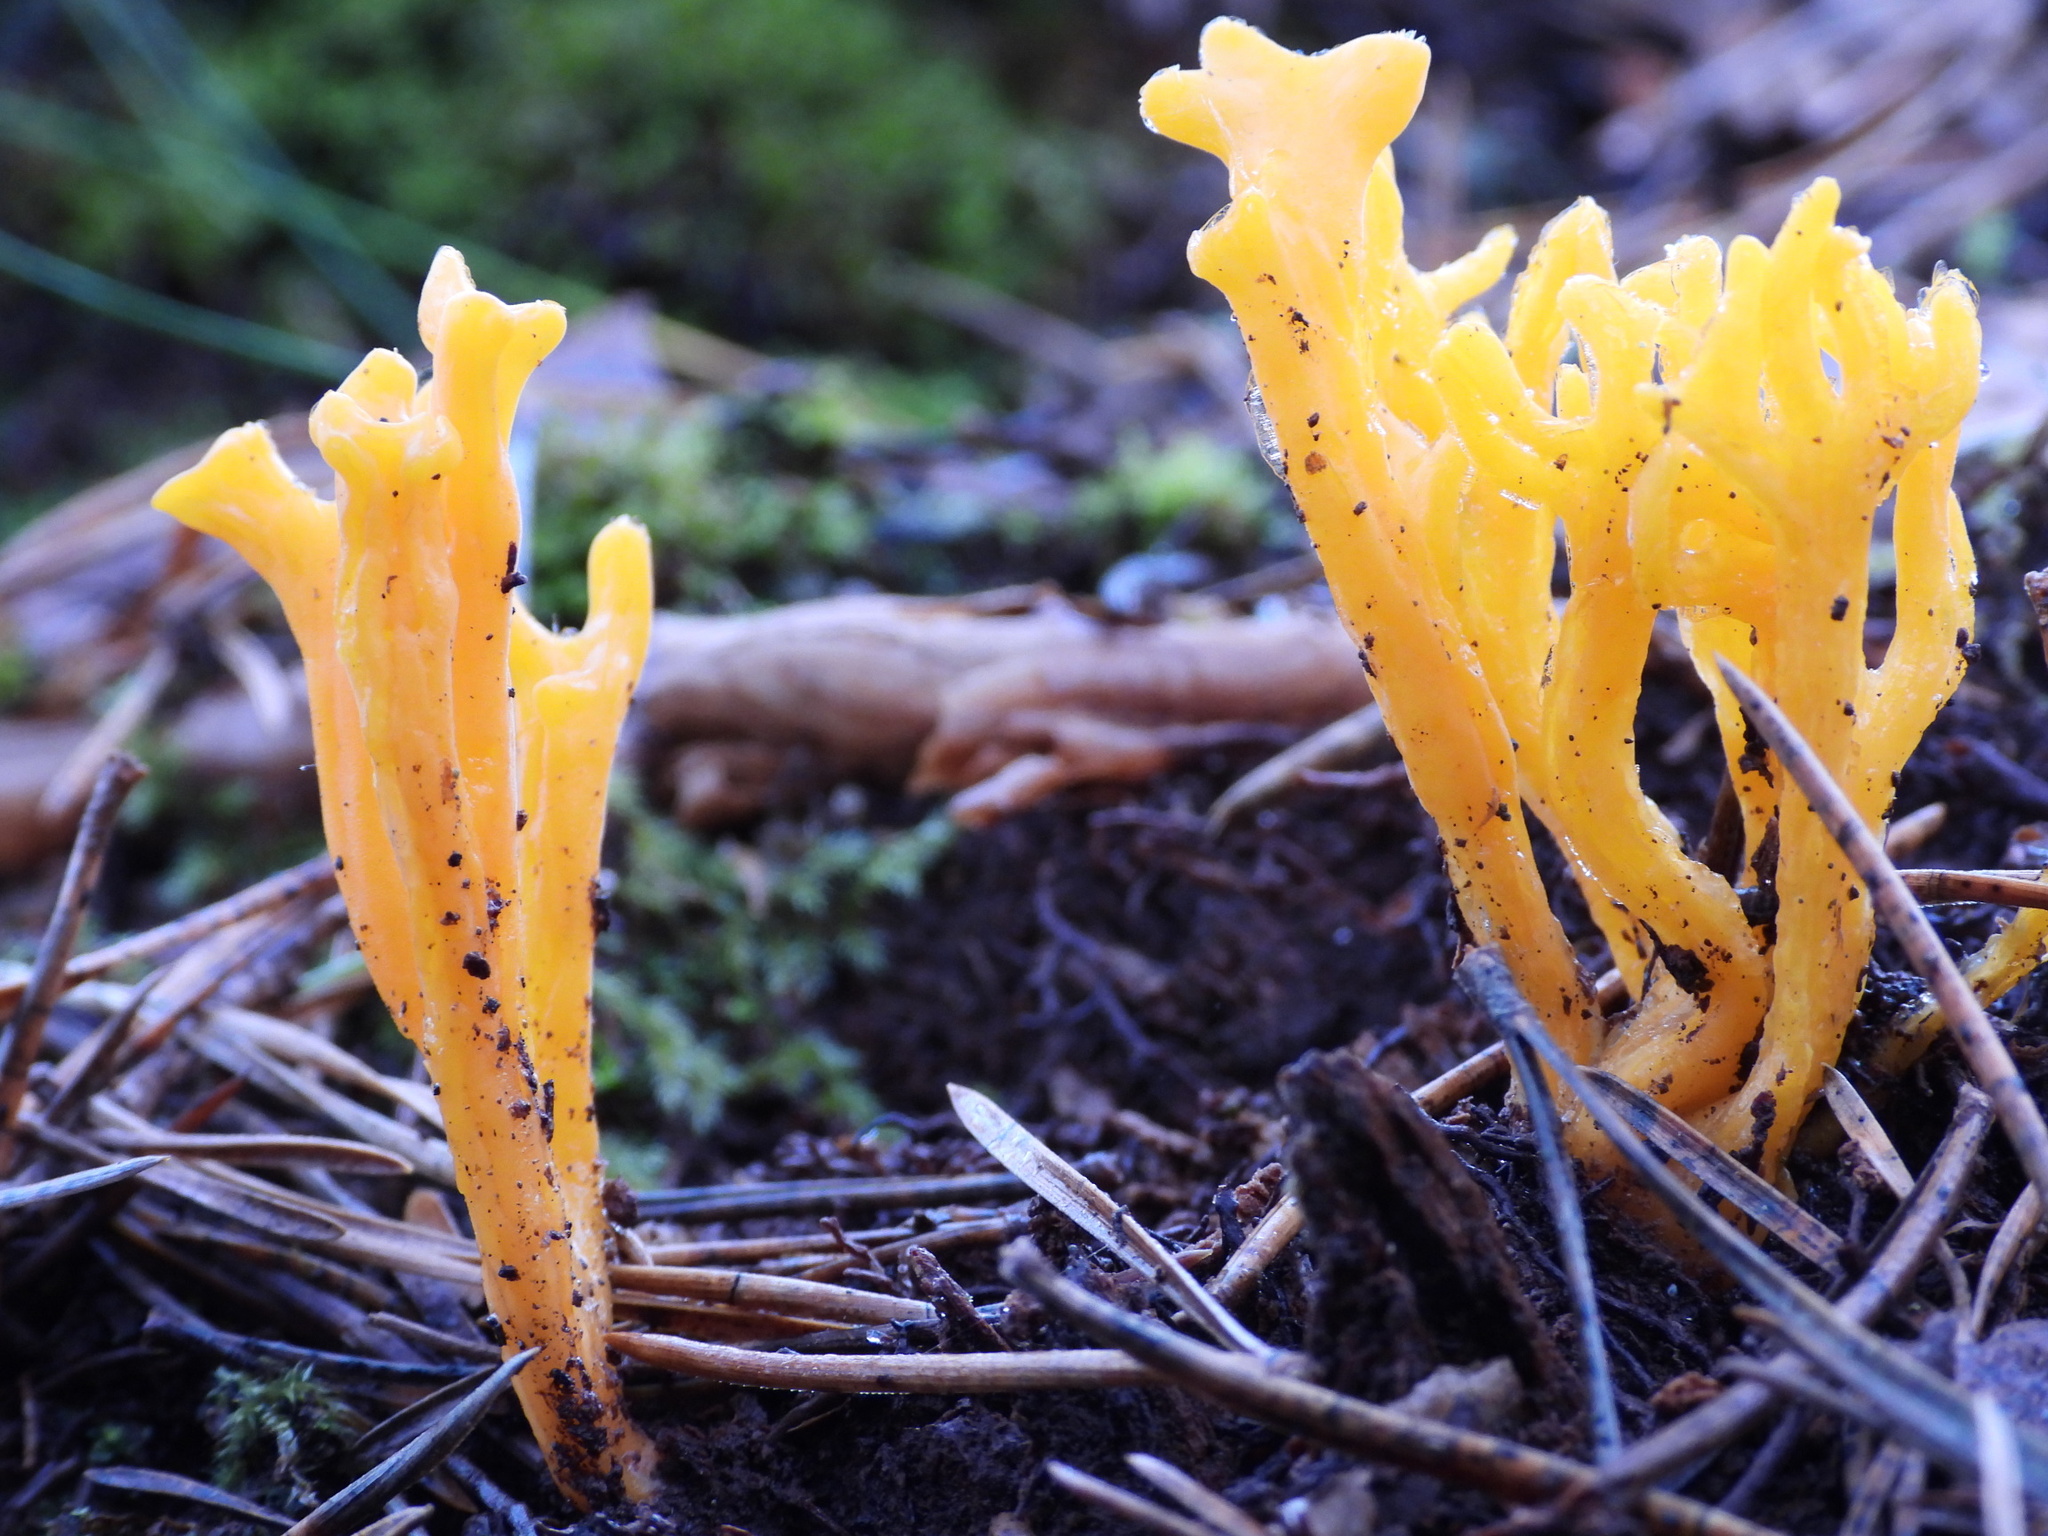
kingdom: Fungi
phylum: Basidiomycota
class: Dacrymycetes
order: Dacrymycetales
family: Dacrymycetaceae
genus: Calocera
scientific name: Calocera viscosa
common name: Yellow stagshorn
